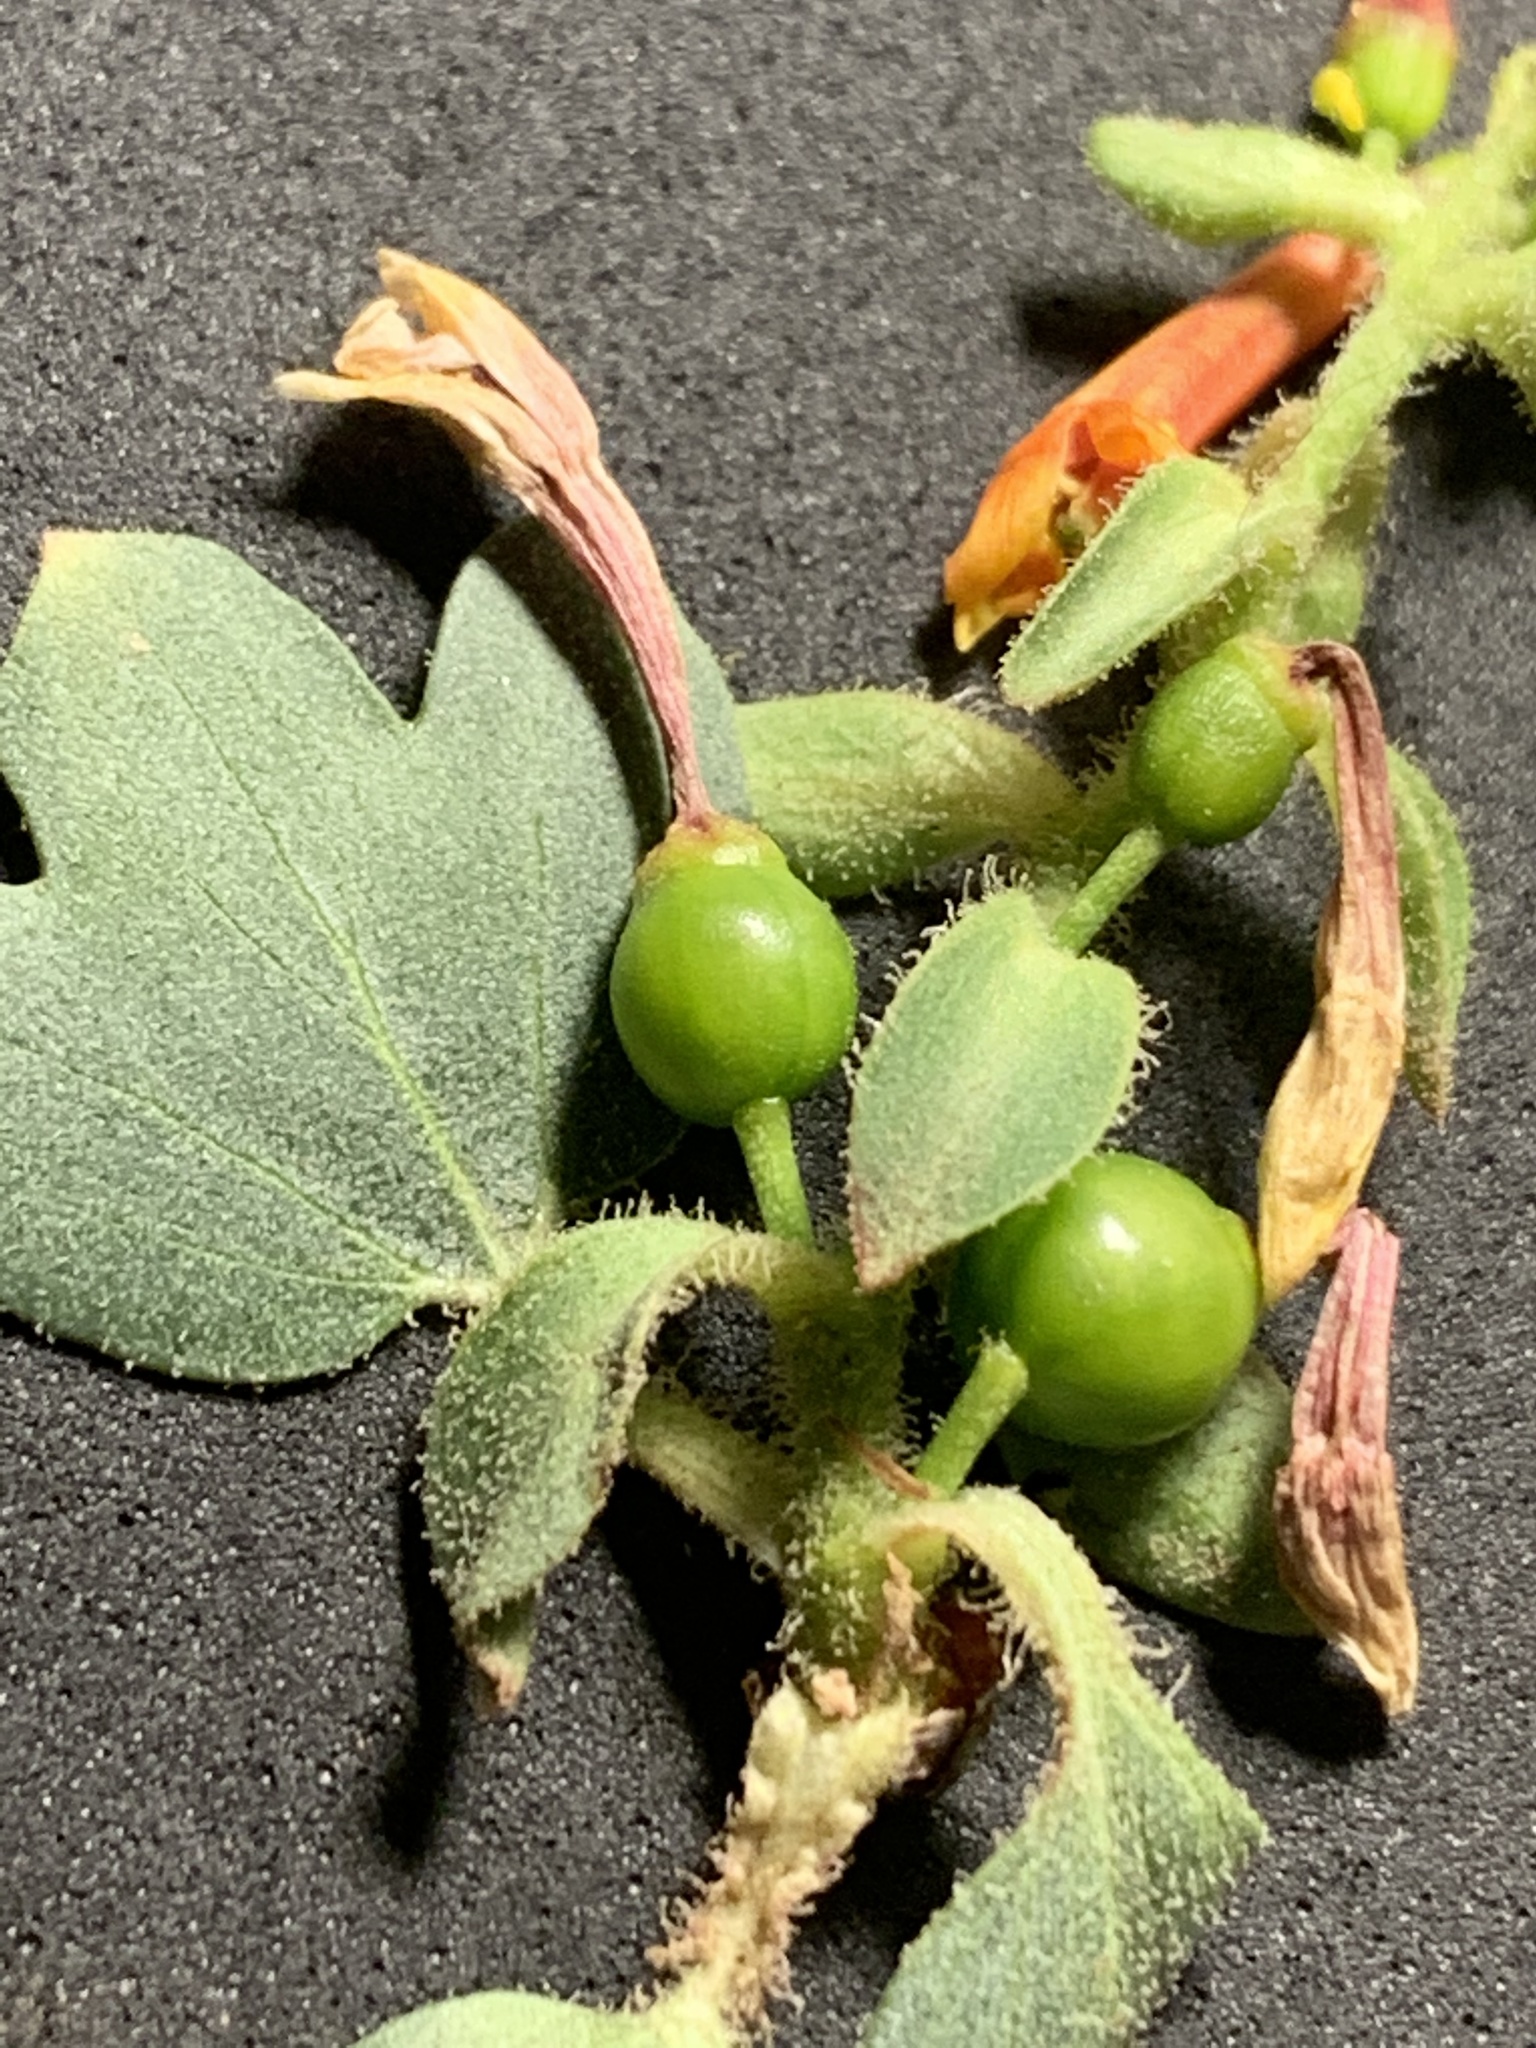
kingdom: Plantae
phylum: Tracheophyta
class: Magnoliopsida
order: Saxifragales
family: Grossulariaceae
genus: Ribes
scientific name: Ribes aureum
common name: Golden currant
